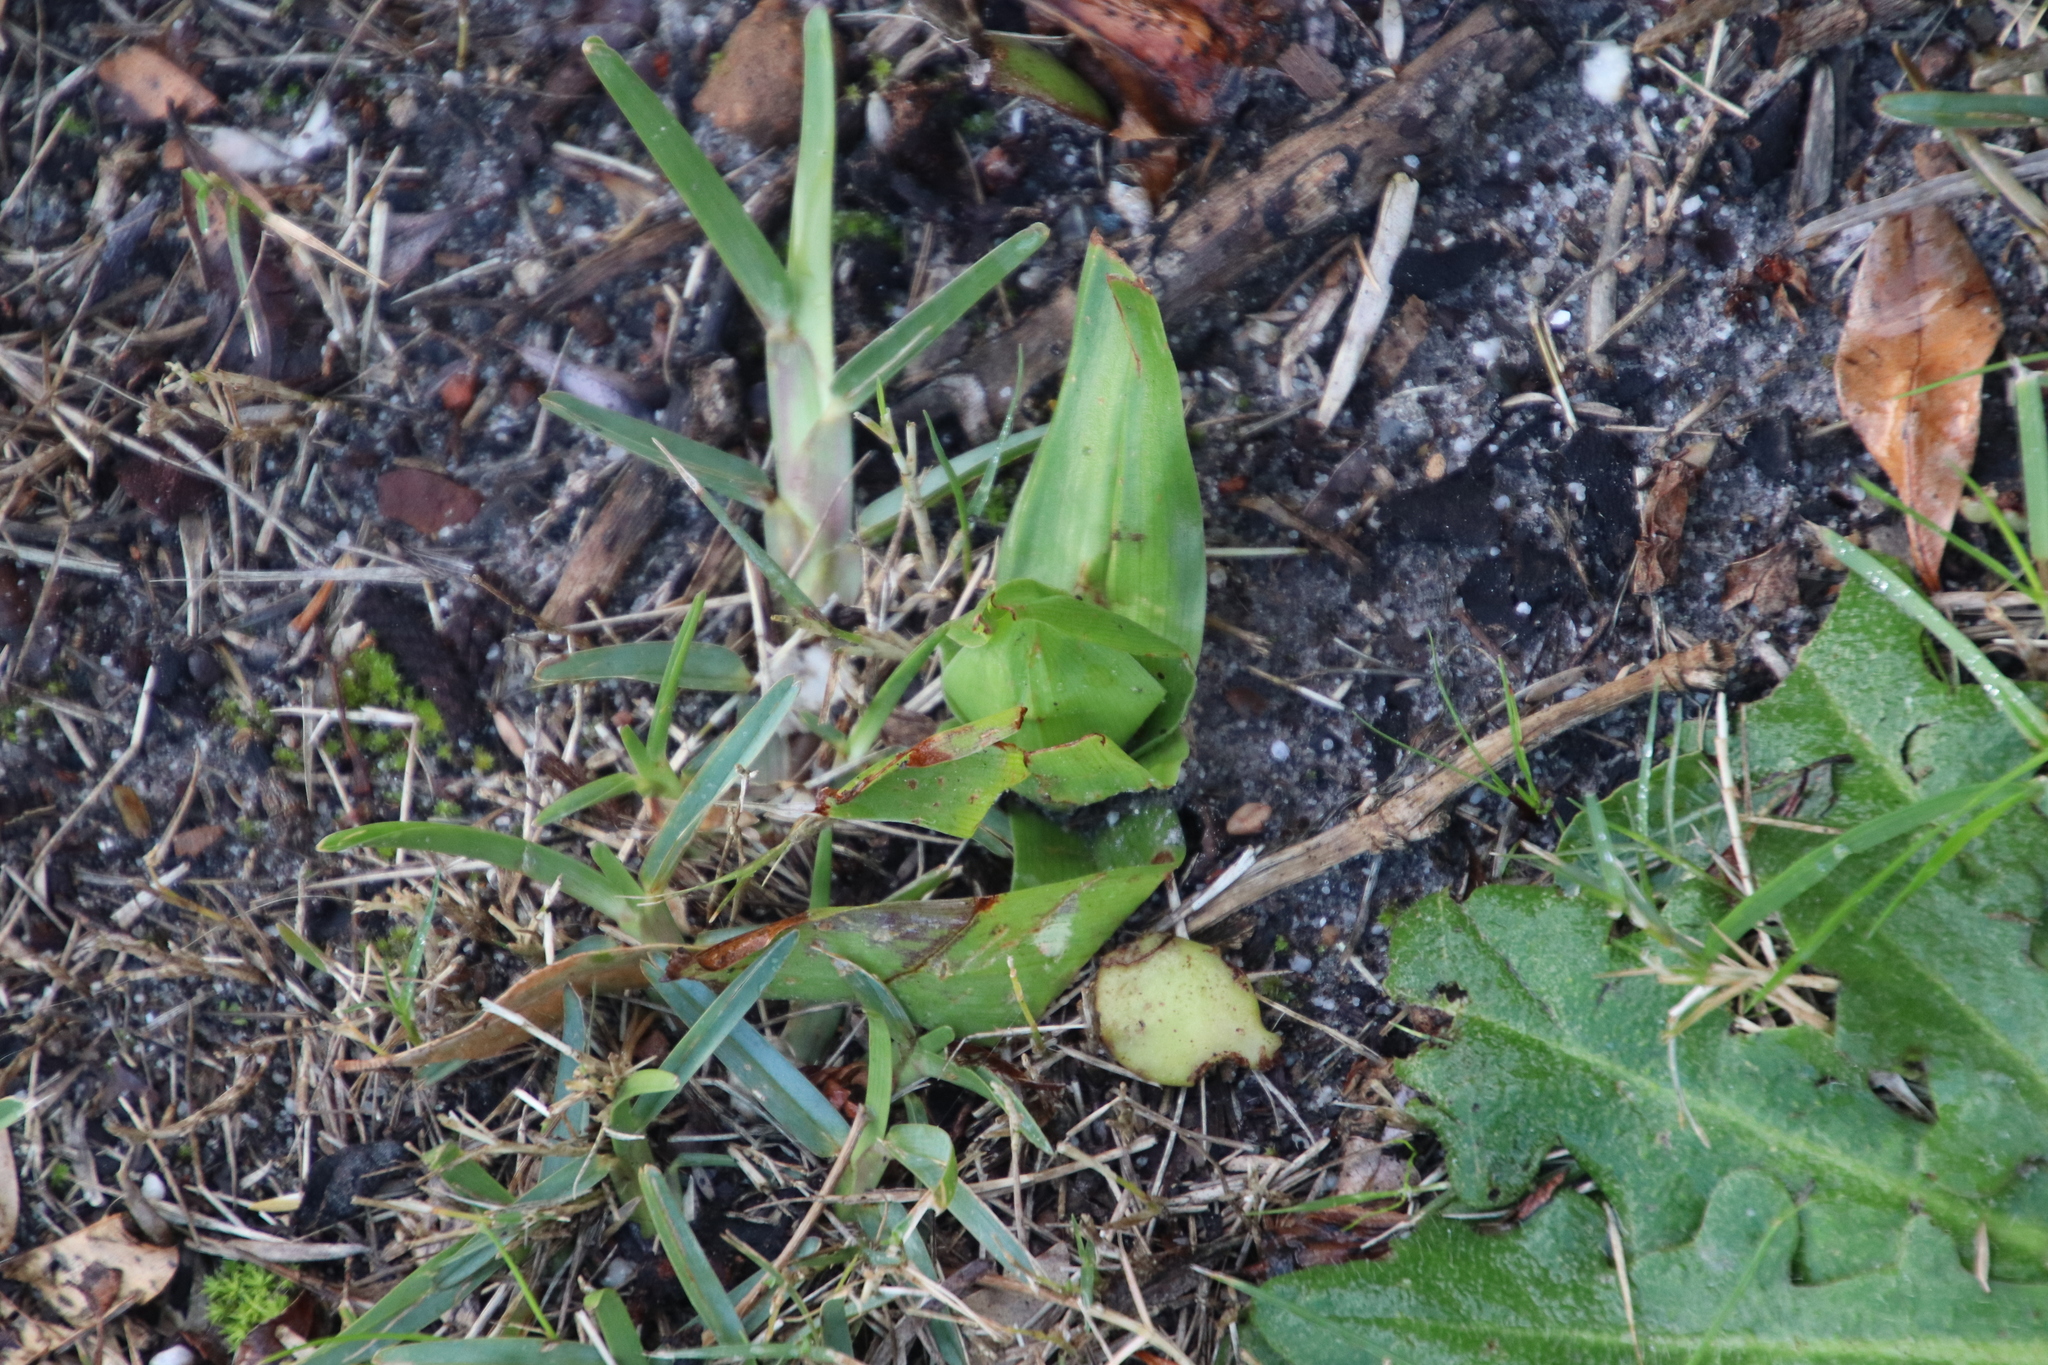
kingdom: Plantae
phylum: Tracheophyta
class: Liliopsida
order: Liliales
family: Colchicaceae
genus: Colchicum
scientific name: Colchicum eucomoides
